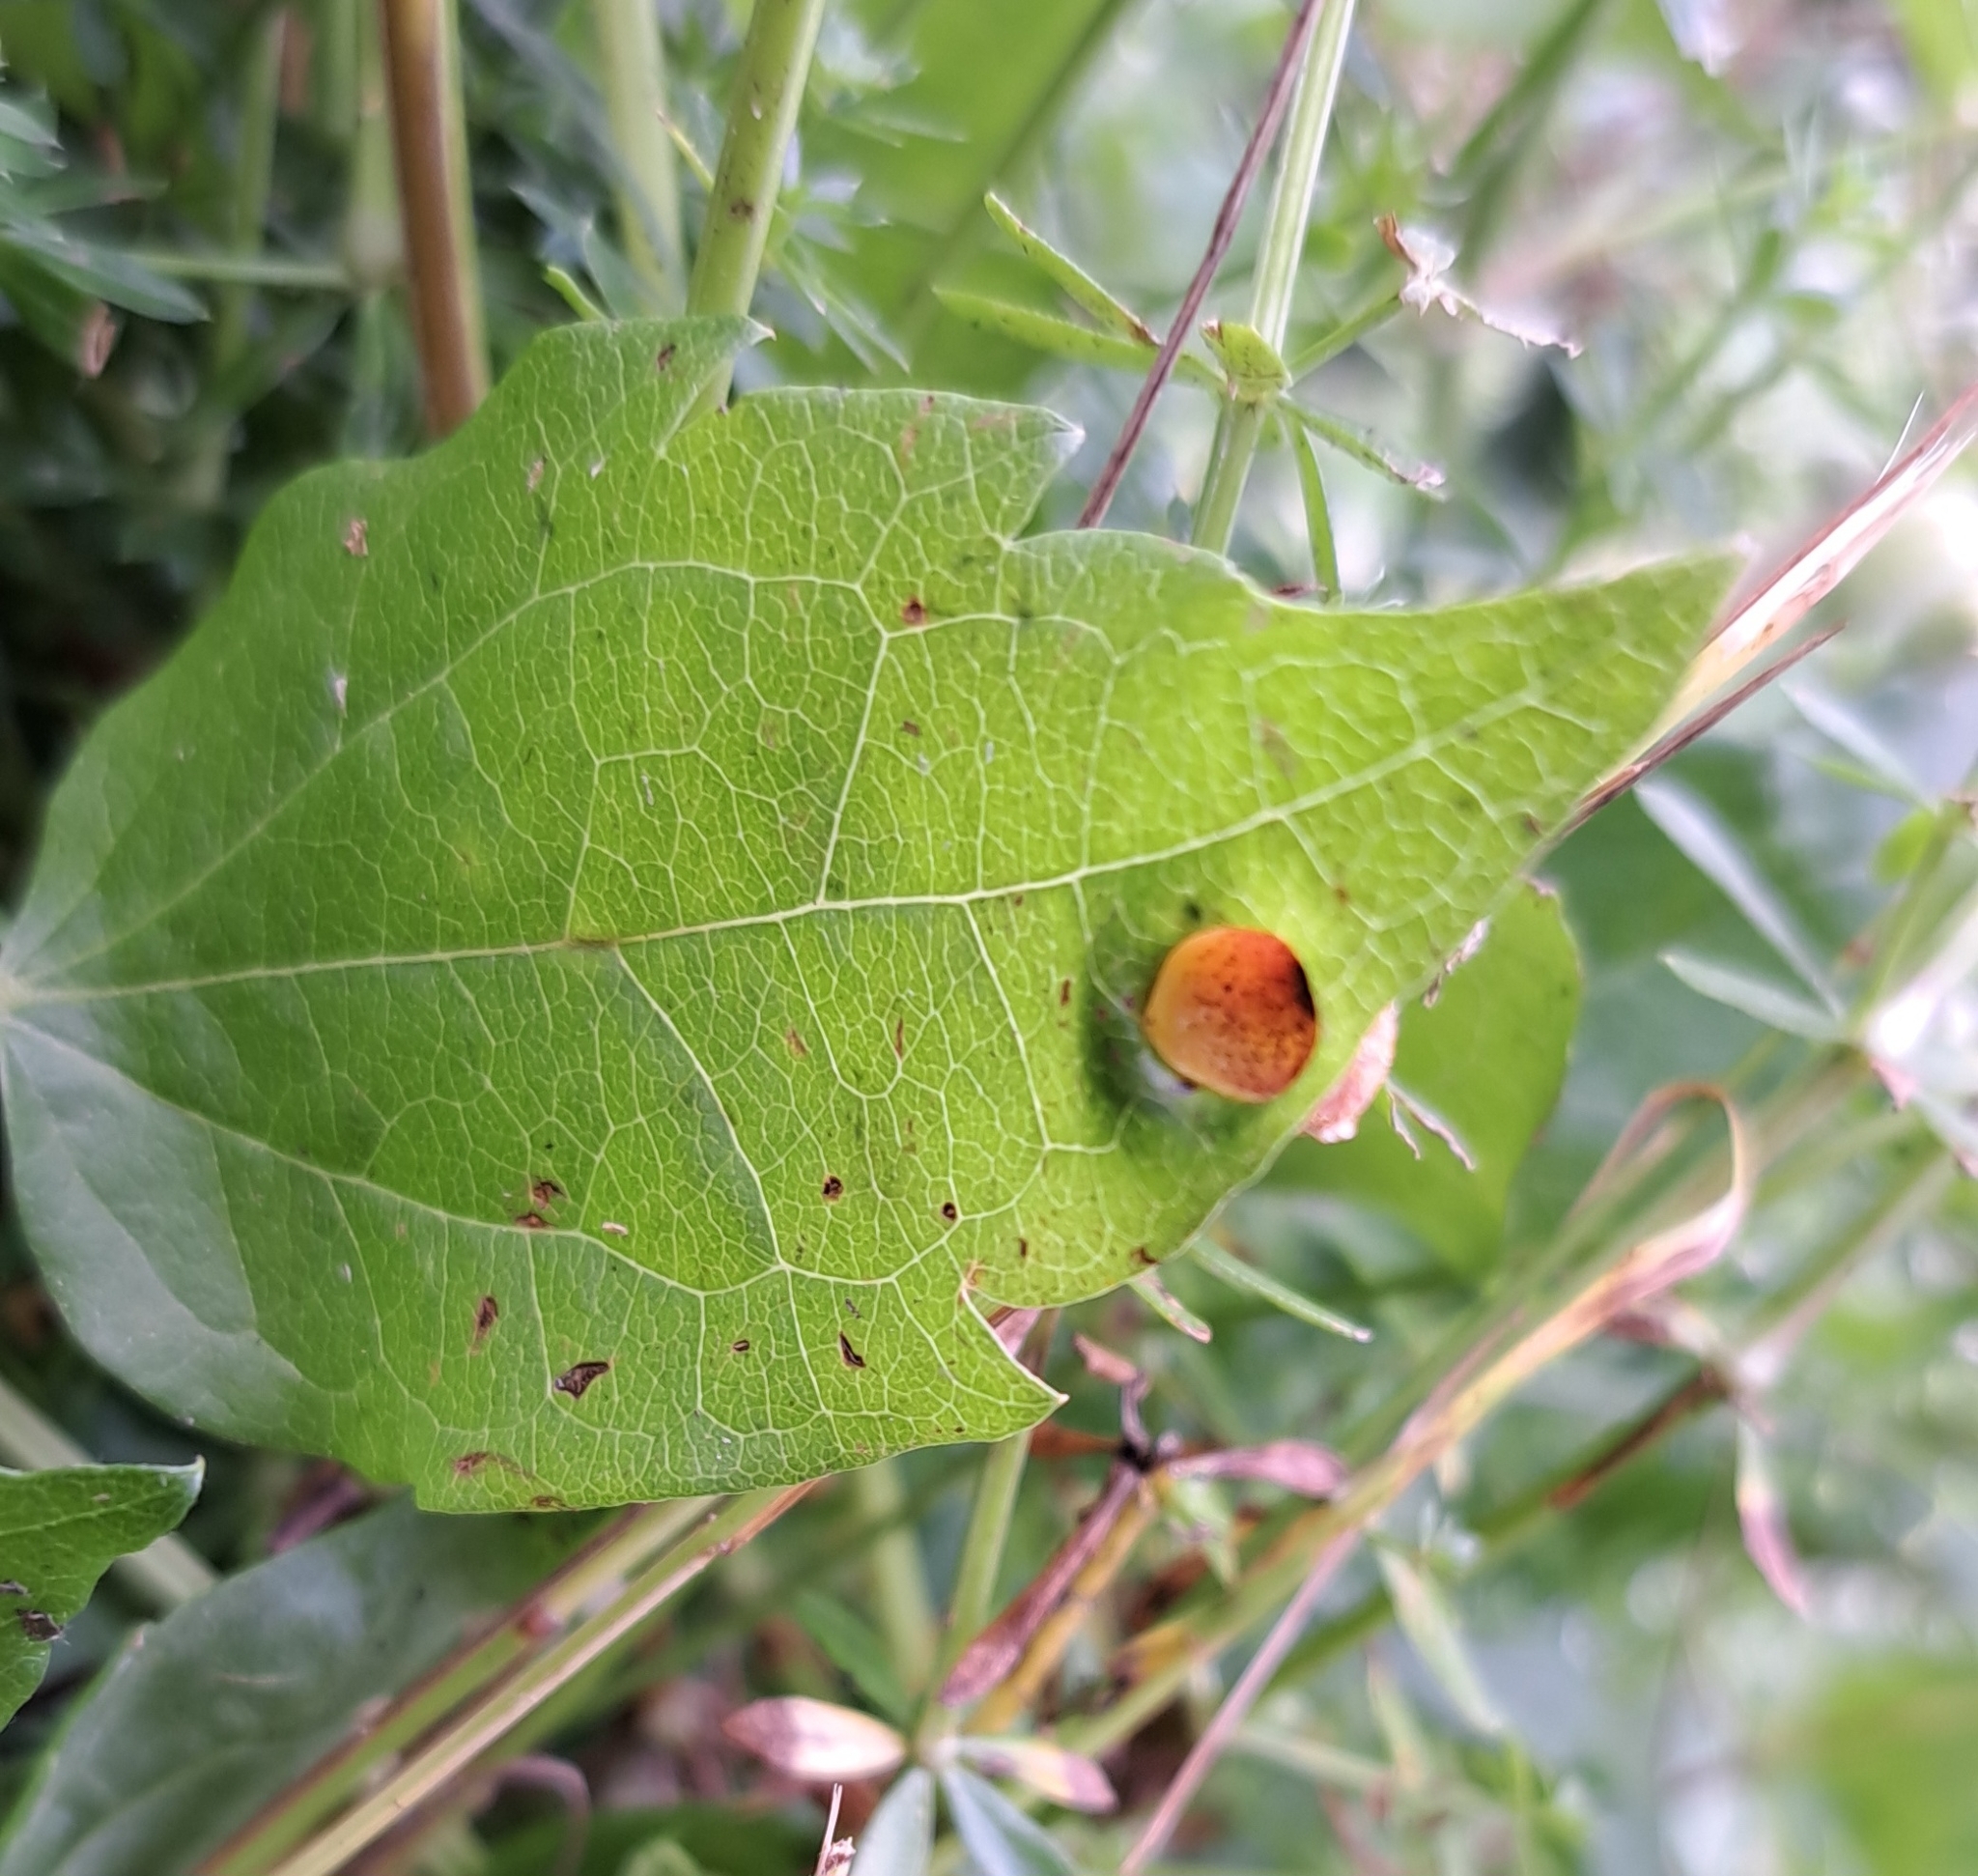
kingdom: Fungi
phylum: Basidiomycota
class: Pucciniomycetes
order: Pucciniales
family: Pucciniaceae
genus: Puccinia
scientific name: Puccinia clematidis
